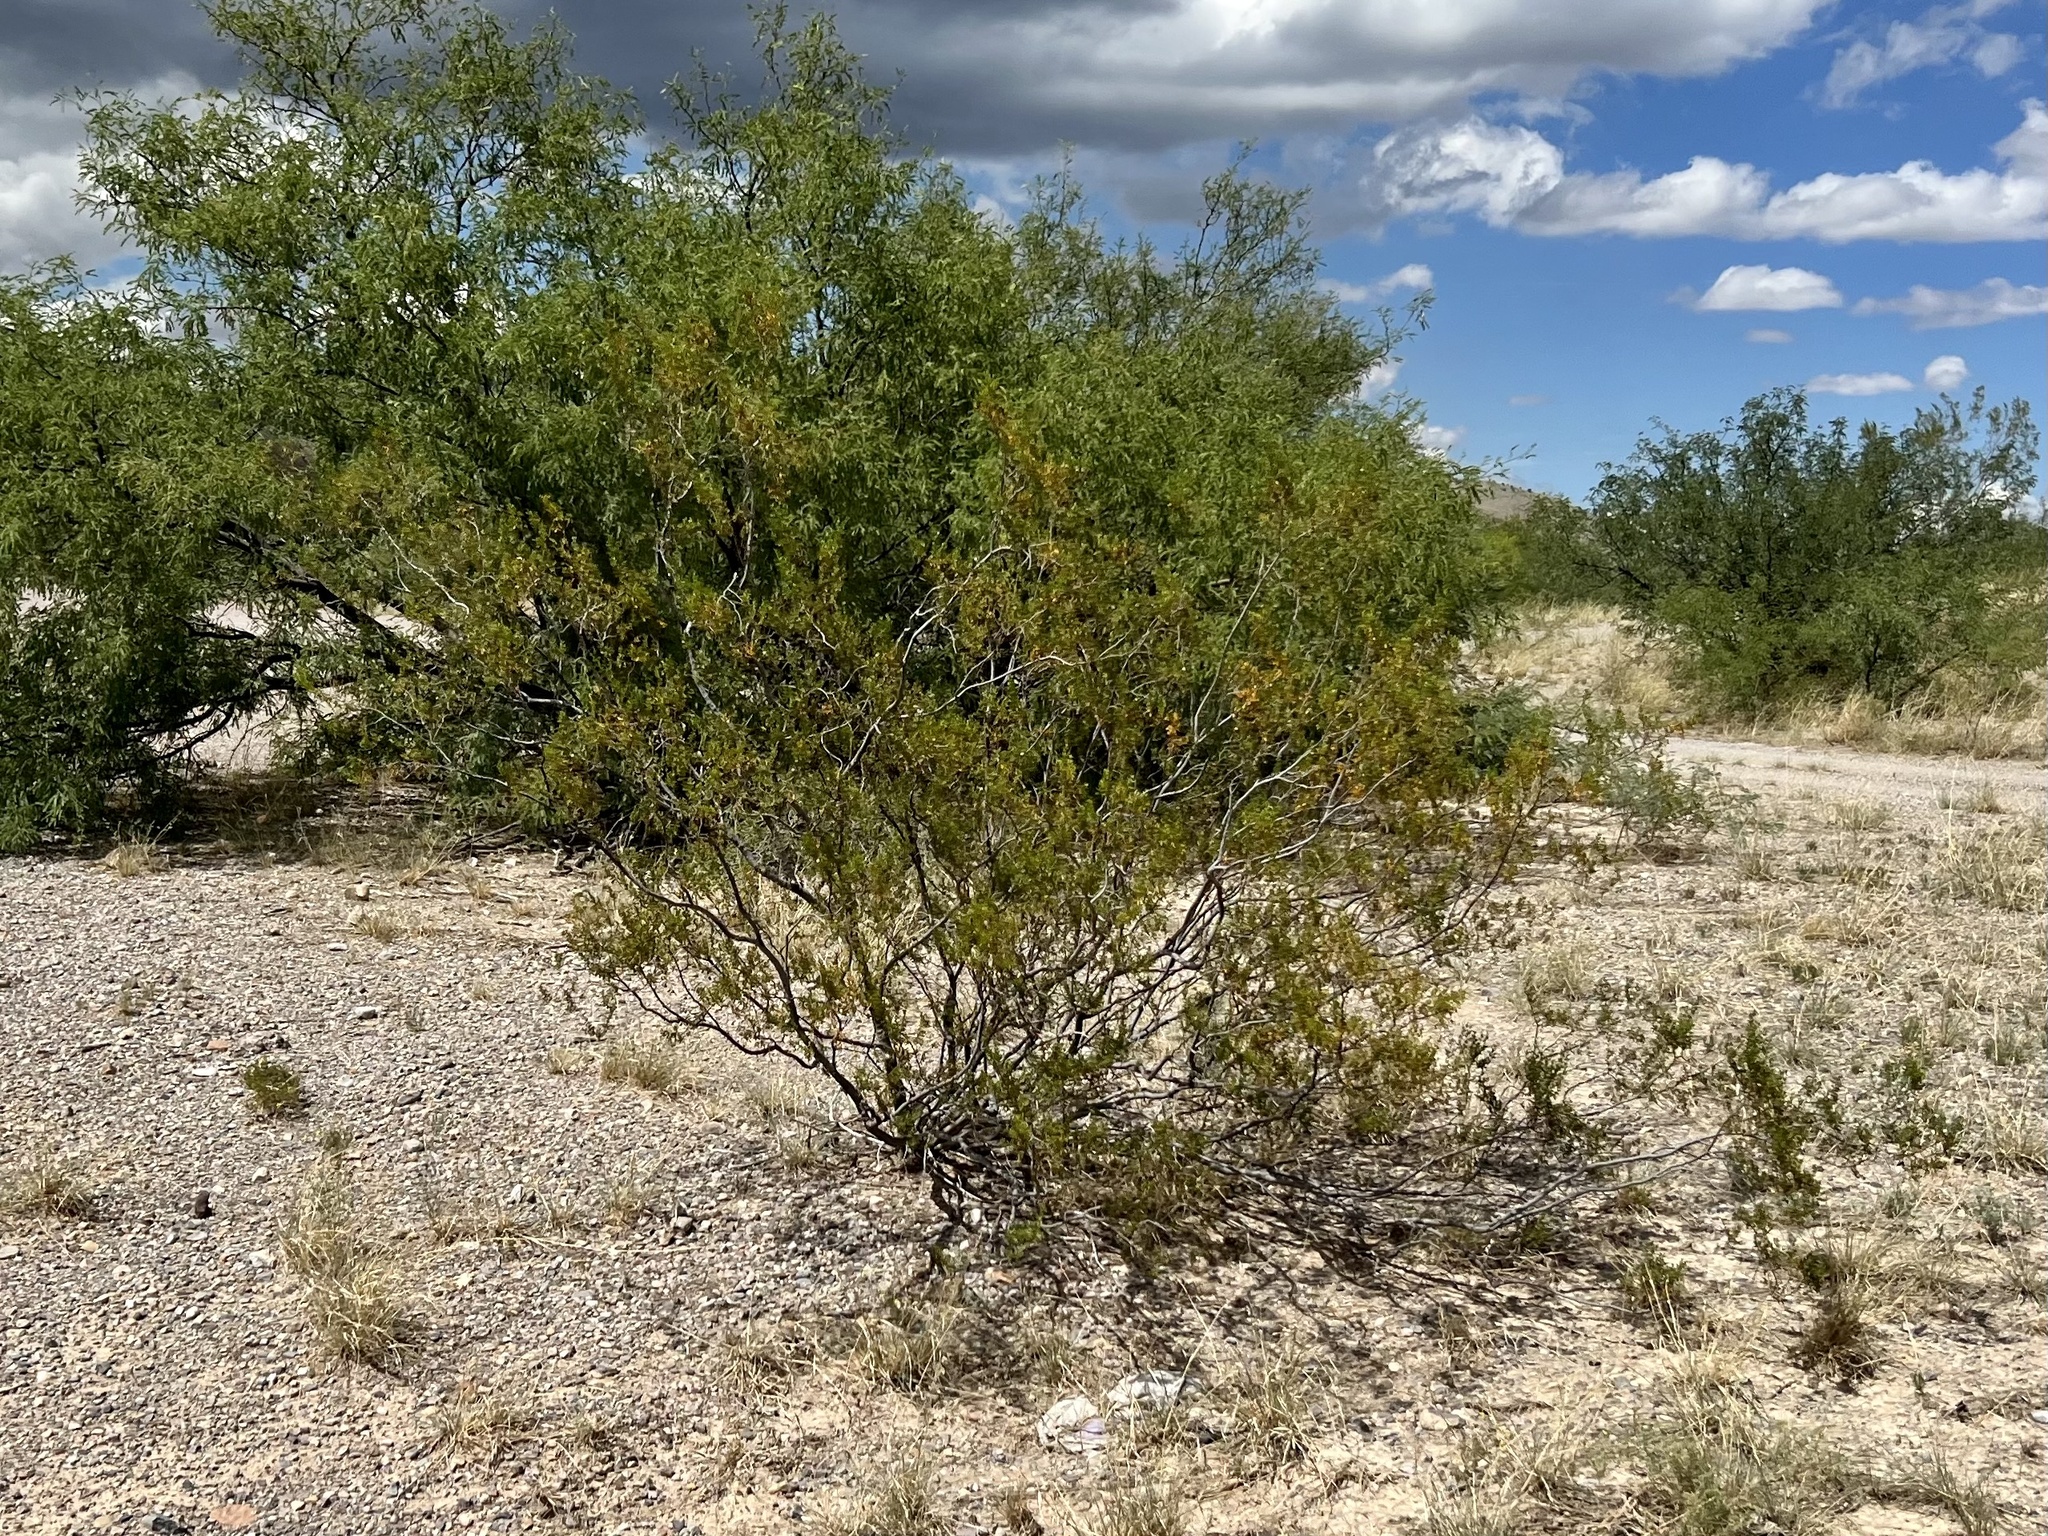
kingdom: Plantae
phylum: Tracheophyta
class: Magnoliopsida
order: Zygophyllales
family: Zygophyllaceae
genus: Larrea
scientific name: Larrea tridentata
